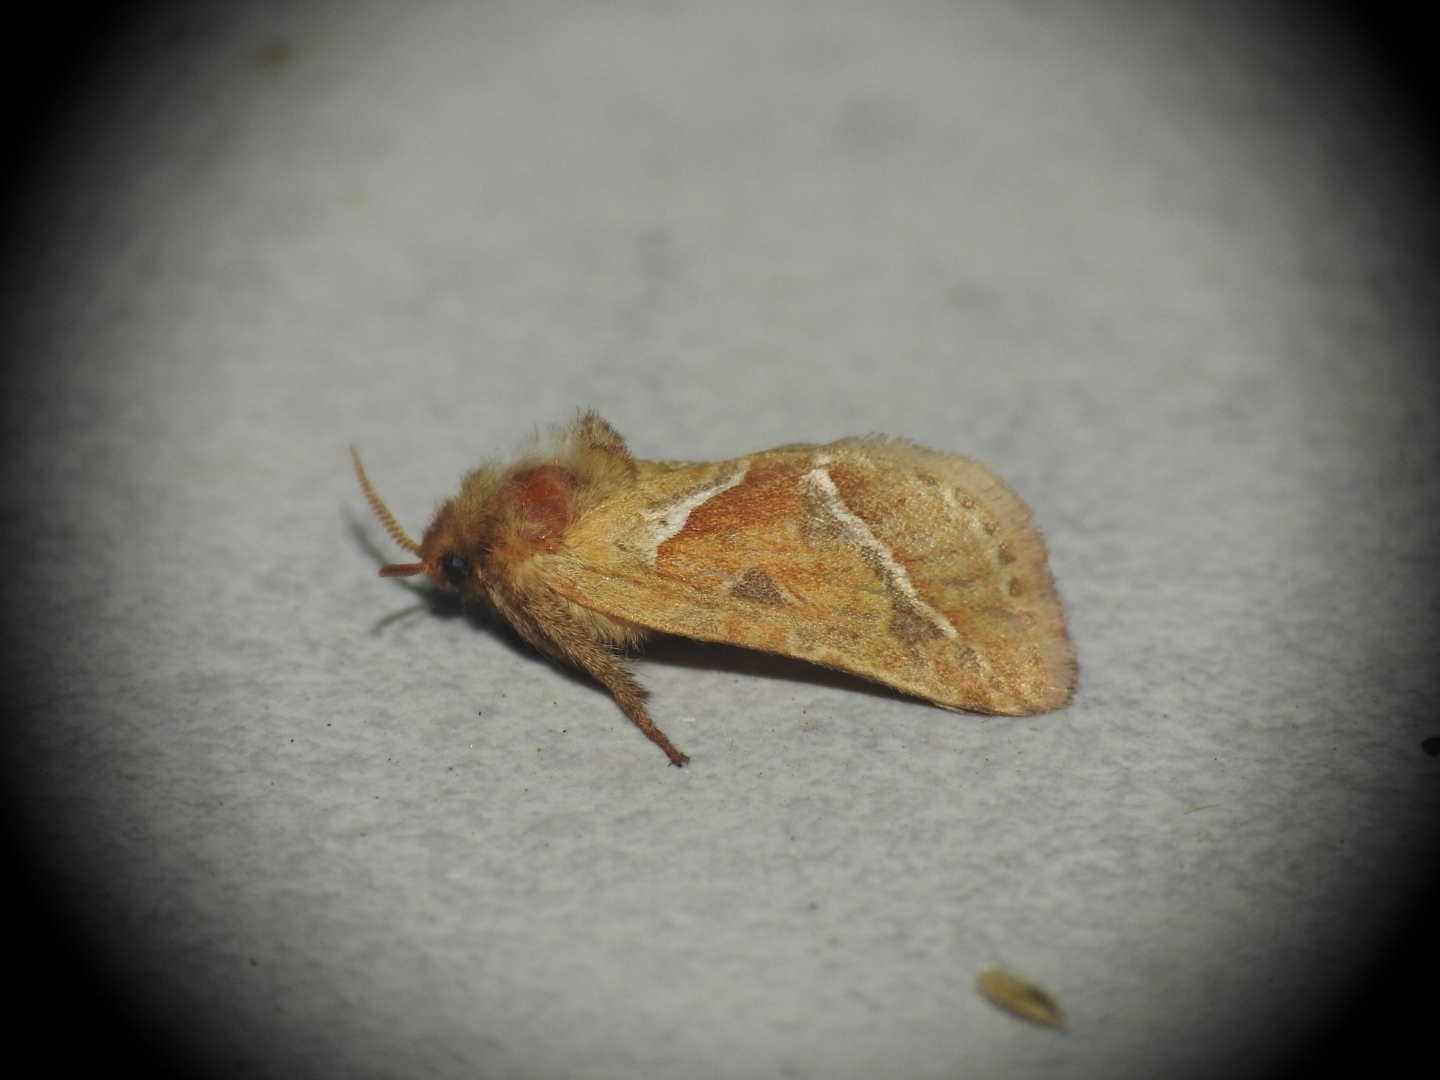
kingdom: Animalia
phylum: Arthropoda
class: Insecta
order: Lepidoptera
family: Hepialidae
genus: Triodia
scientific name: Triodia sylvina
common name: Orange swift
